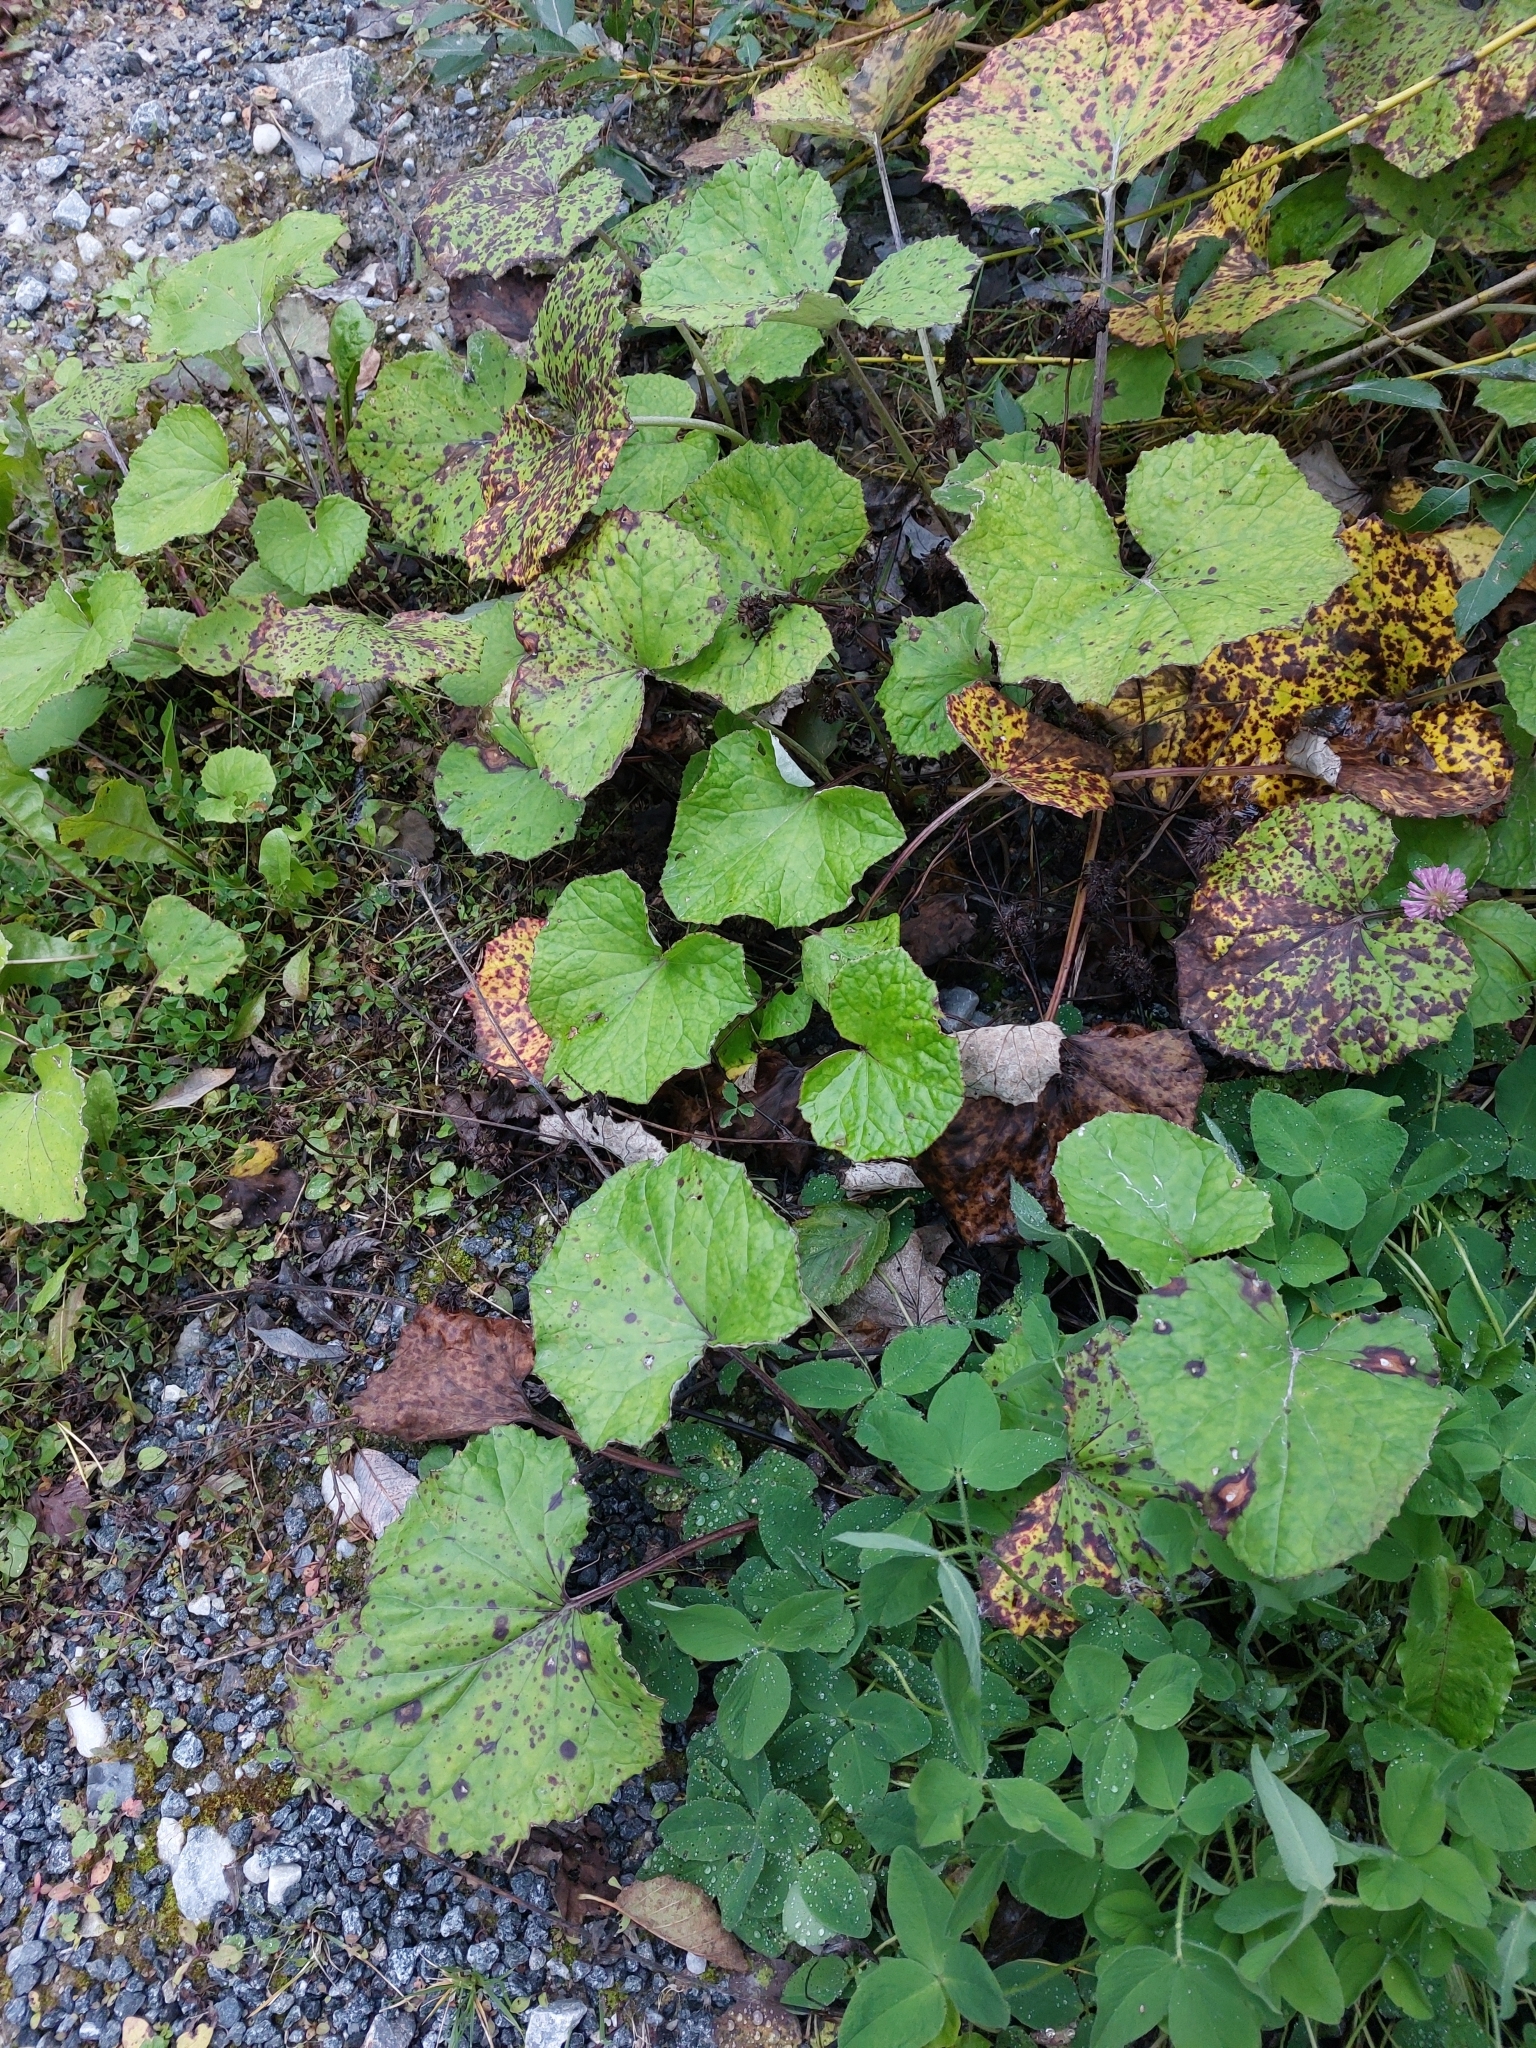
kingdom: Plantae
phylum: Tracheophyta
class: Magnoliopsida
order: Asterales
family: Asteraceae
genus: Tussilago
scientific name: Tussilago farfara
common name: Coltsfoot
